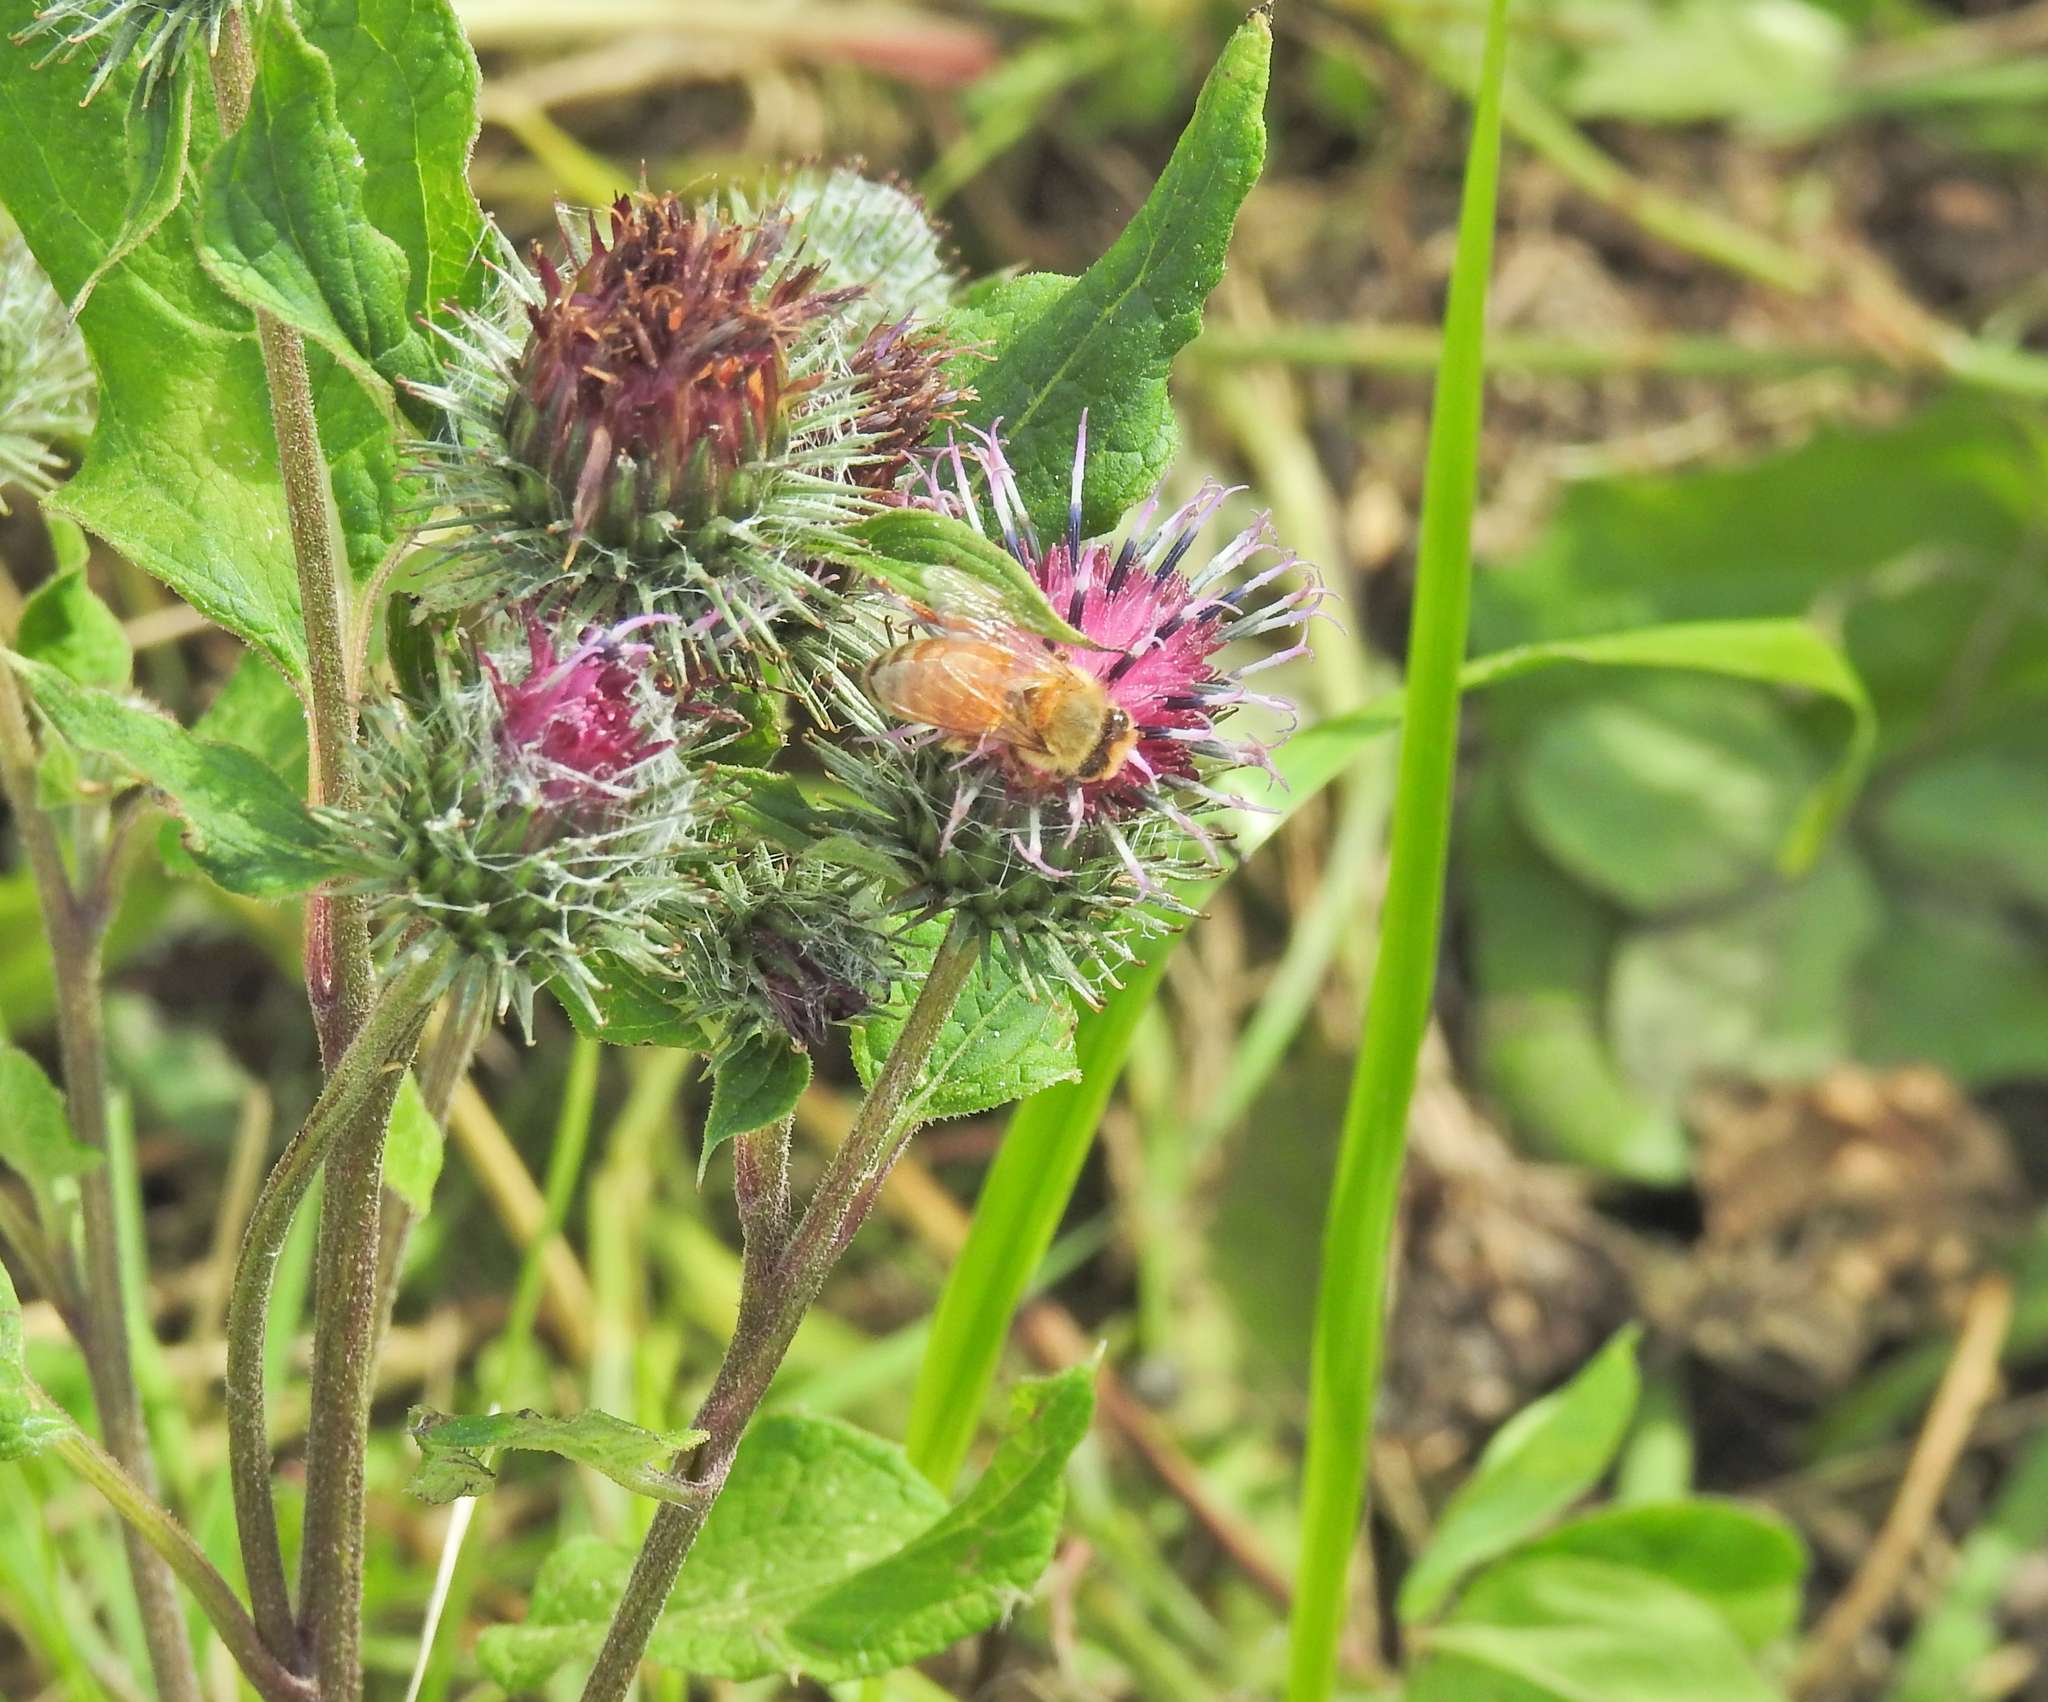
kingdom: Animalia
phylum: Arthropoda
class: Insecta
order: Hymenoptera
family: Apidae
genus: Apis
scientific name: Apis mellifera
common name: Honey bee
